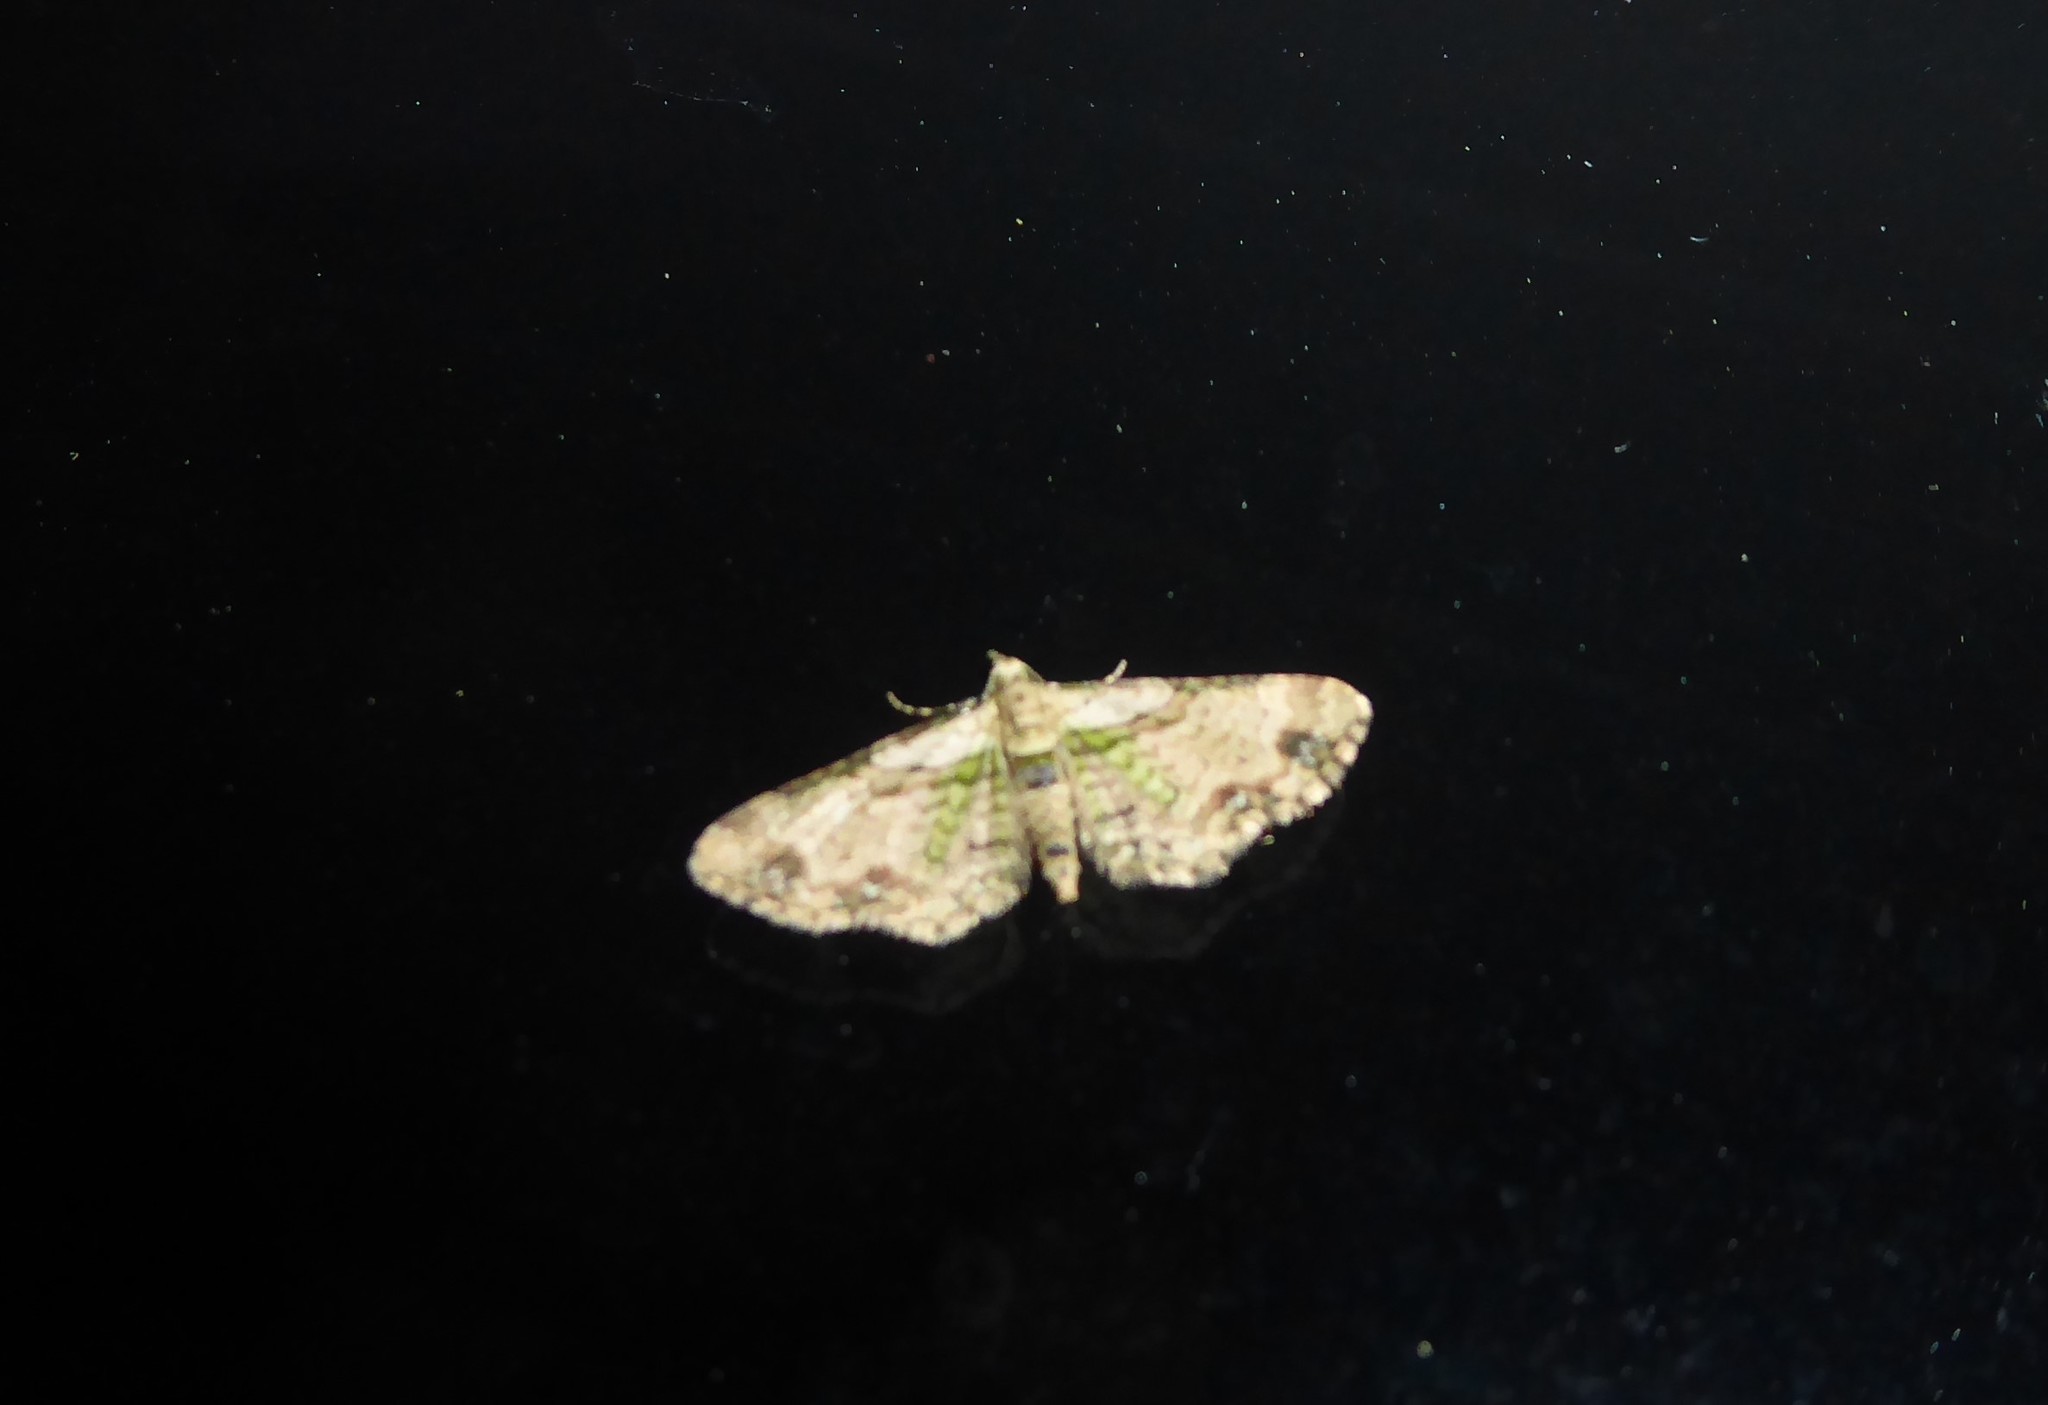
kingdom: Animalia
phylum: Arthropoda
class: Insecta
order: Lepidoptera
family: Geometridae
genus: Chloroclystis
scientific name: Chloroclystis
